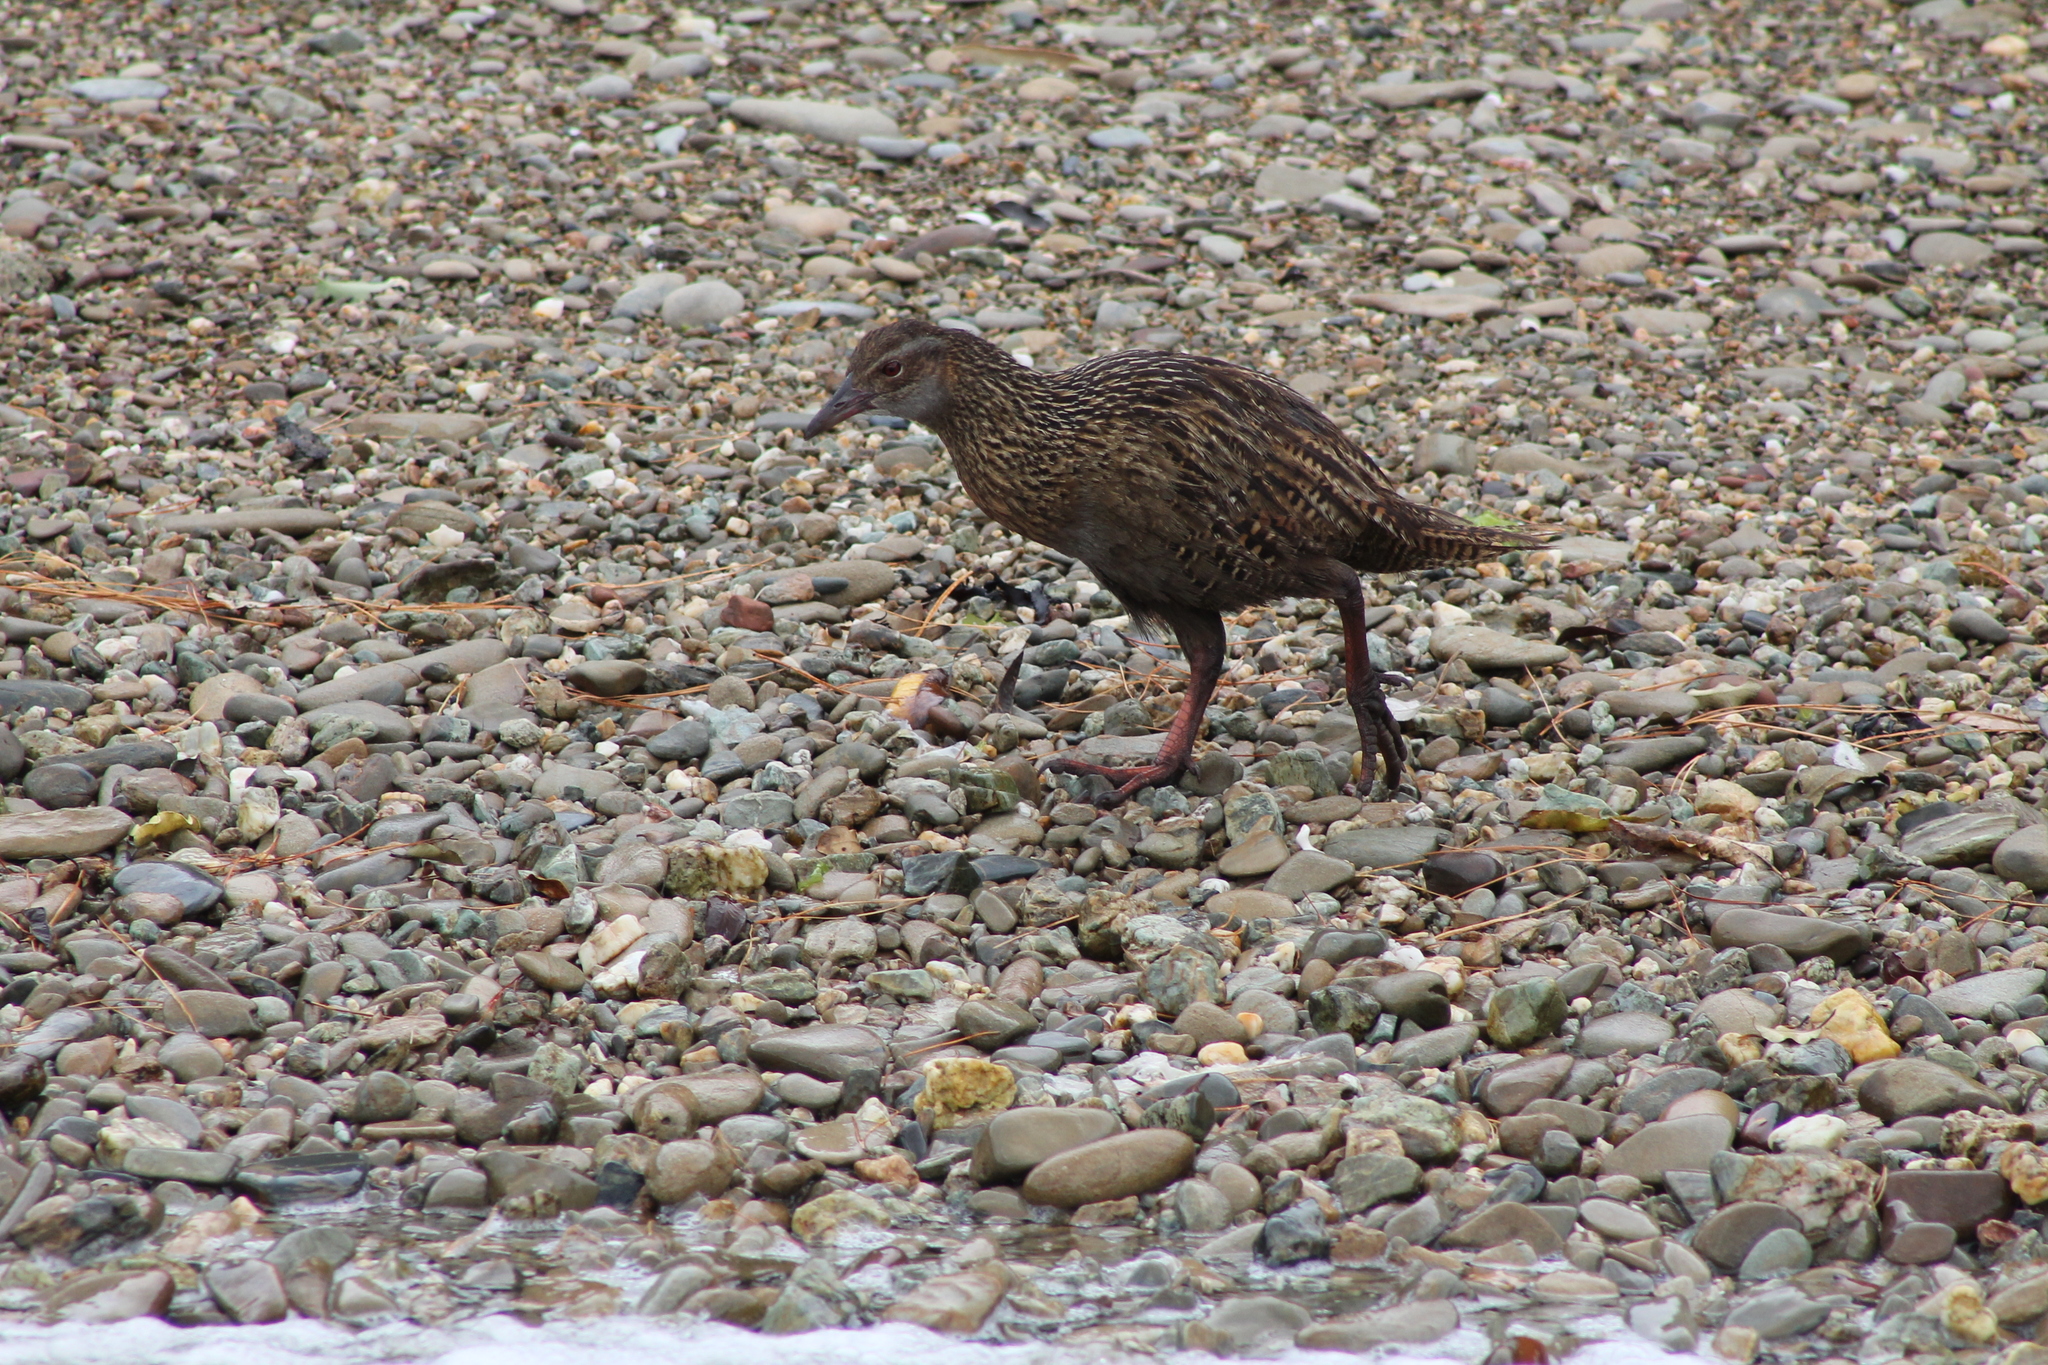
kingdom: Animalia
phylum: Chordata
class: Aves
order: Gruiformes
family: Rallidae
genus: Gallirallus
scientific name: Gallirallus australis
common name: Weka
